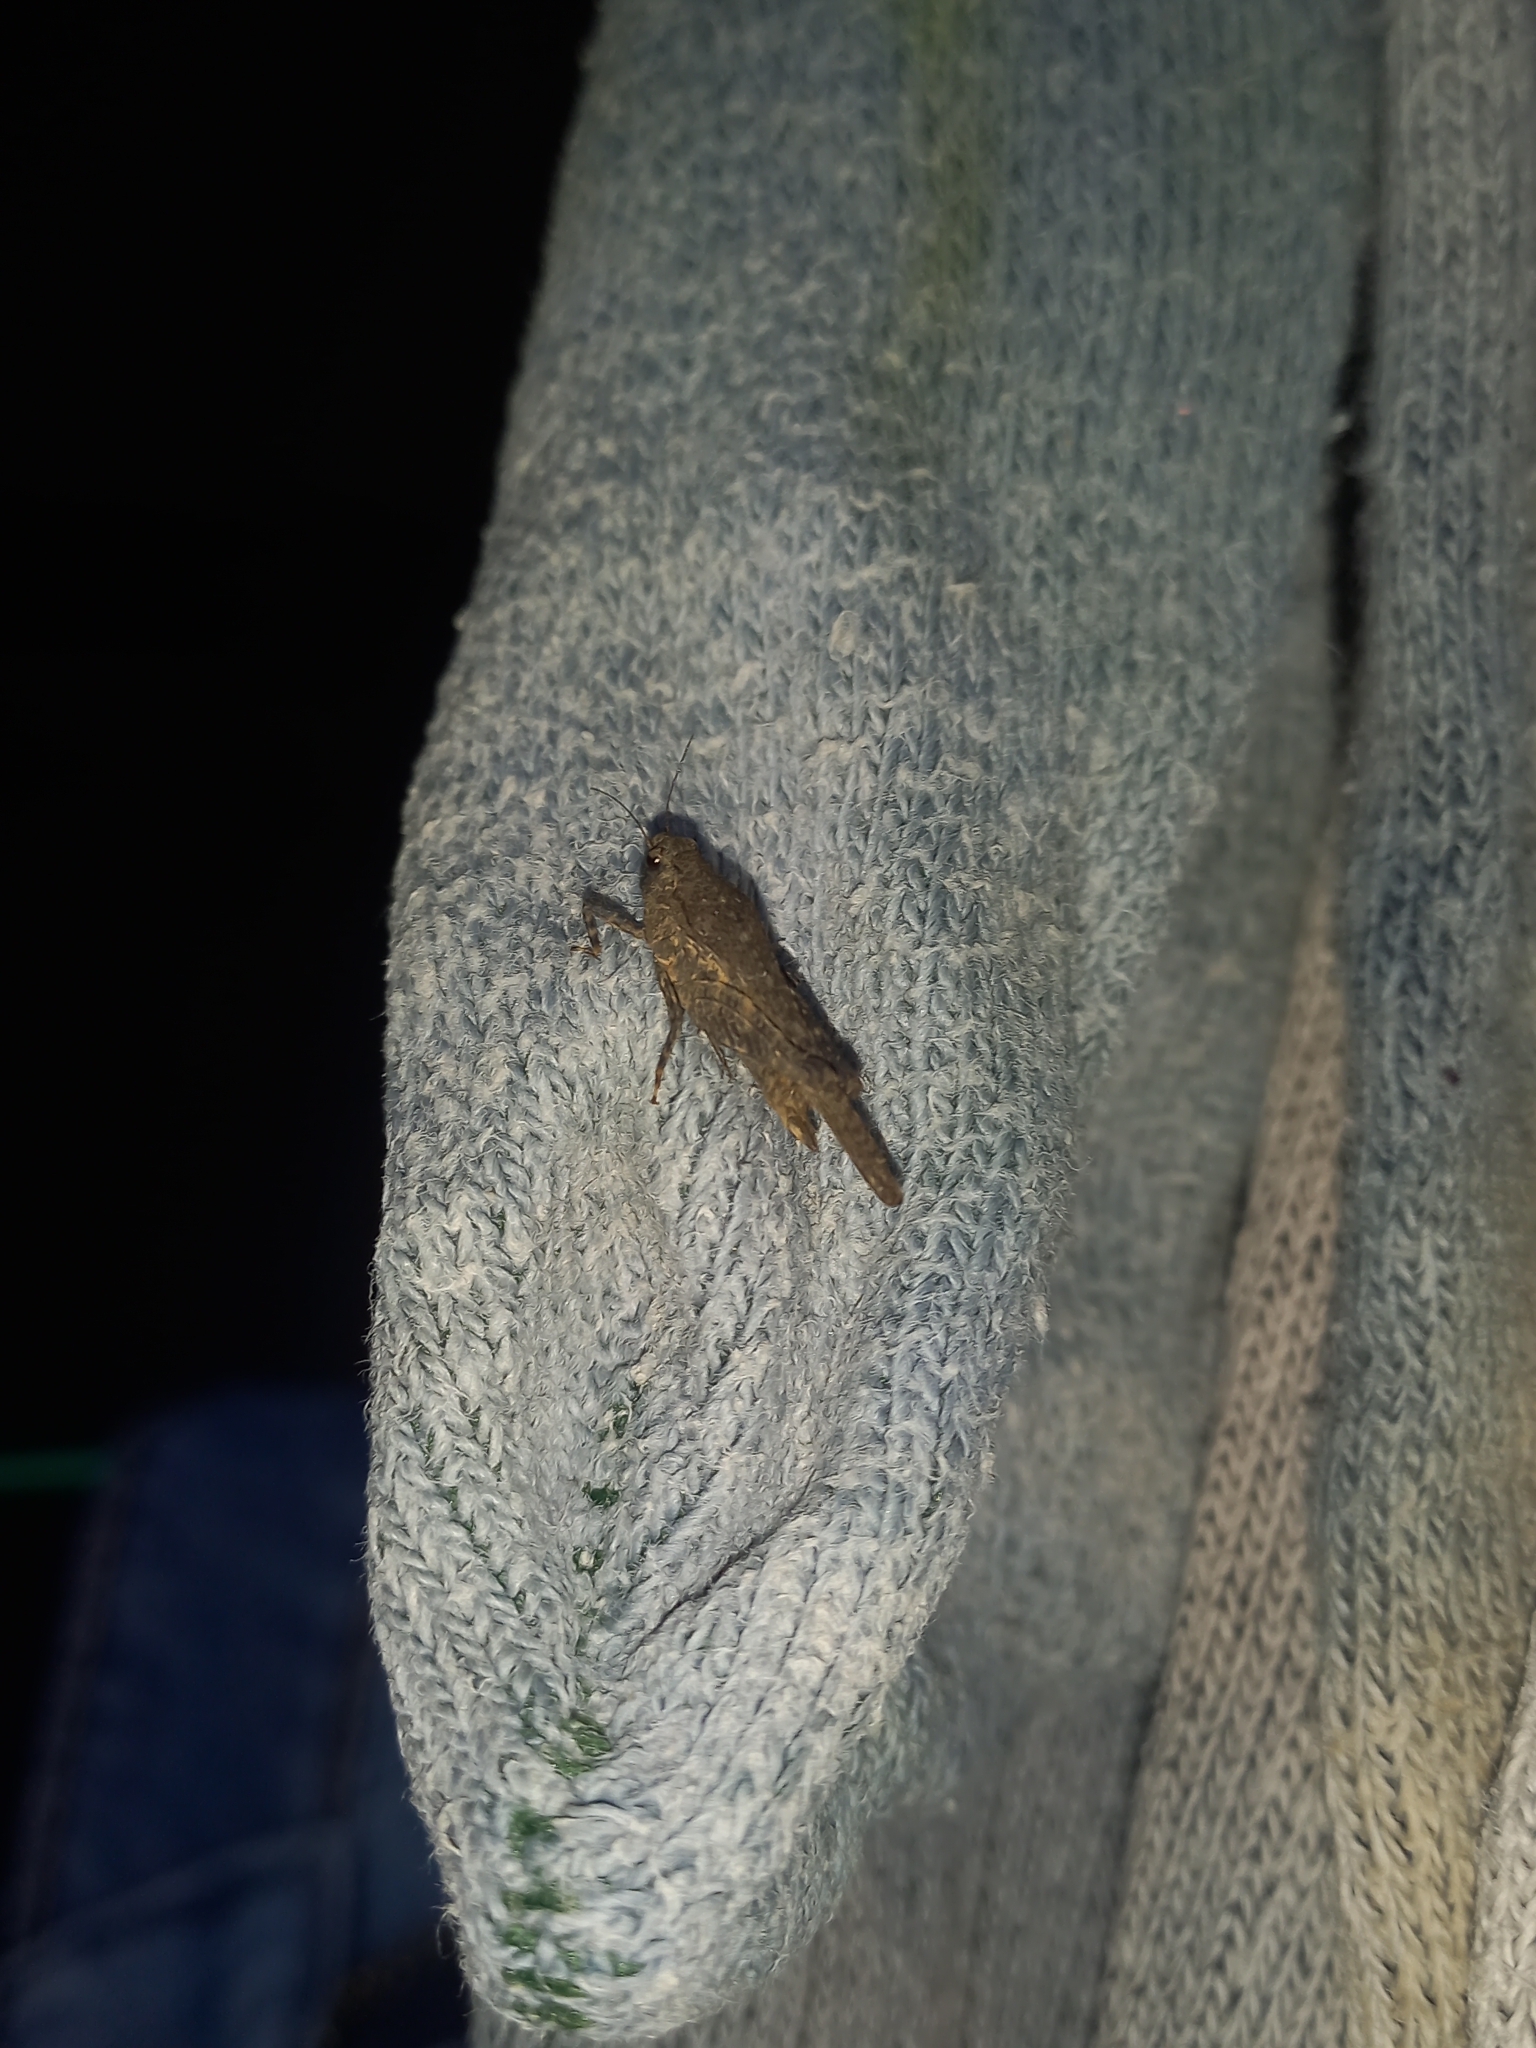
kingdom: Animalia
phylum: Arthropoda
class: Insecta
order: Orthoptera
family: Tetrigidae
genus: Paurotarsus
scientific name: Paurotarsus ruficornis
